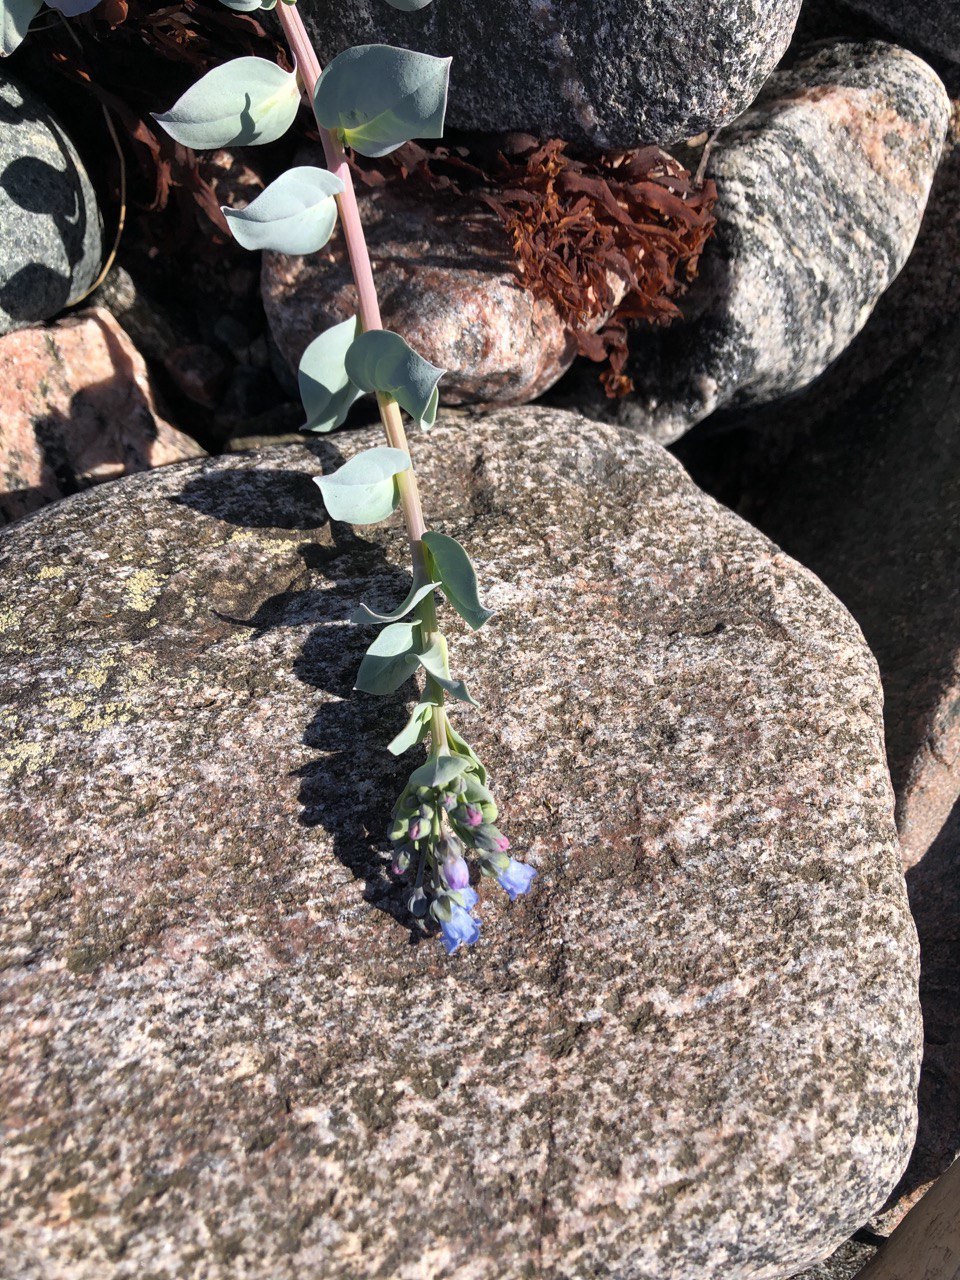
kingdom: Plantae
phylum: Tracheophyta
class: Magnoliopsida
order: Boraginales
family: Boraginaceae
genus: Mertensia
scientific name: Mertensia maritima
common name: Oysterplant
